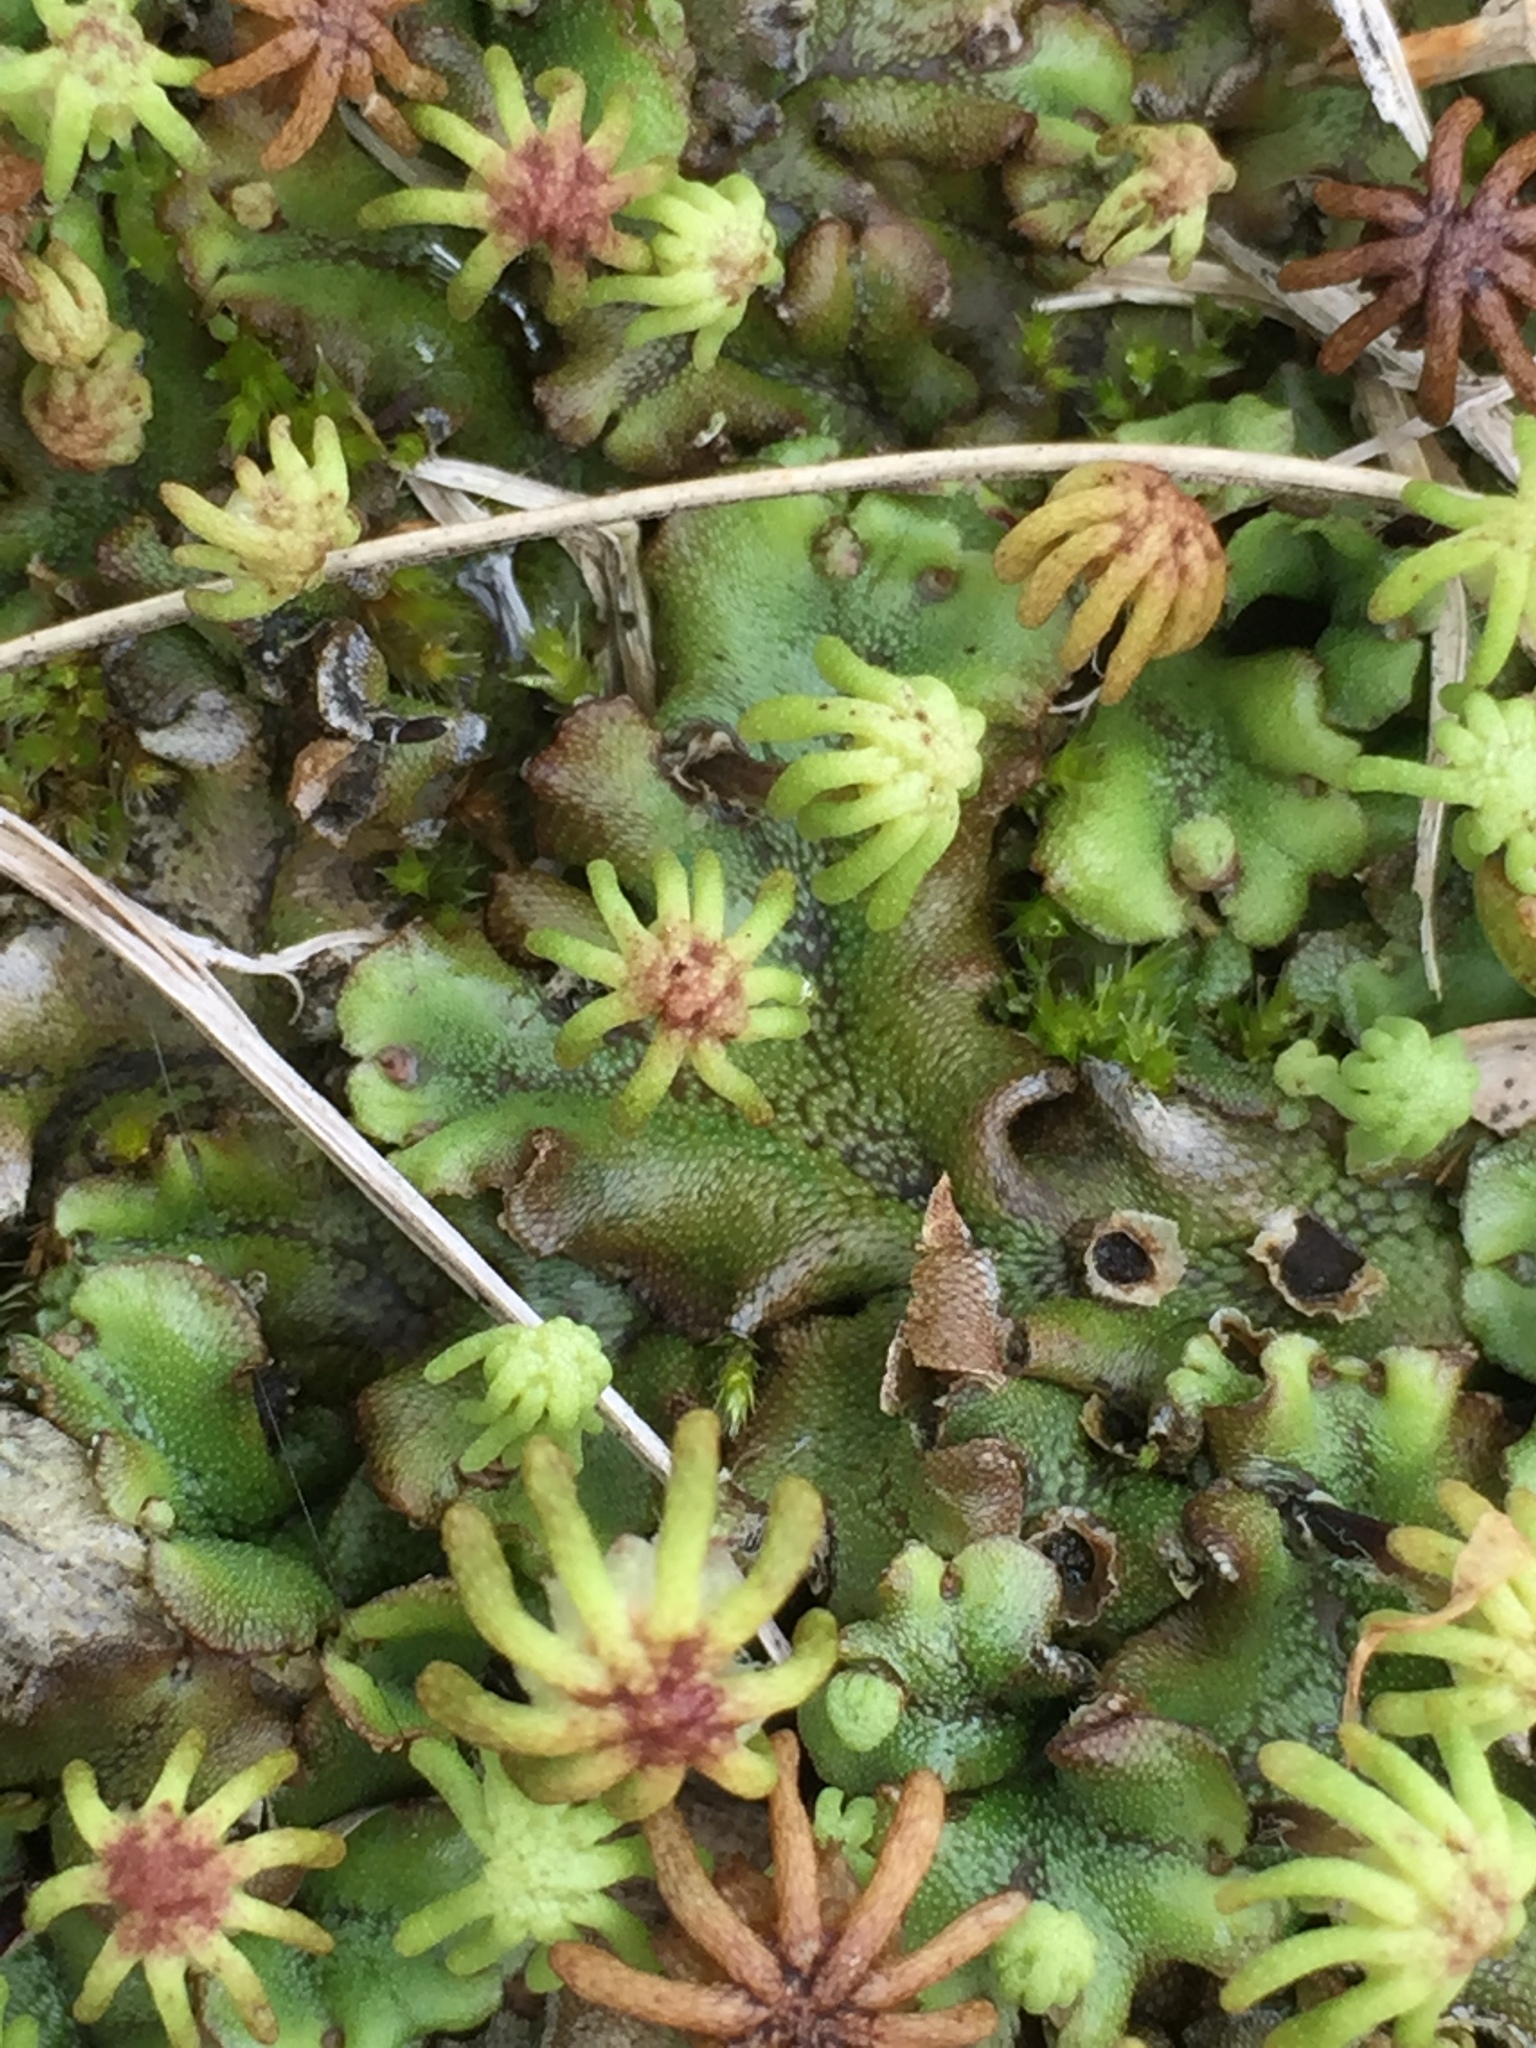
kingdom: Plantae
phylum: Marchantiophyta
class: Marchantiopsida
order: Marchantiales
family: Marchantiaceae
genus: Marchantia
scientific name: Marchantia polymorpha
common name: Common liverwort
